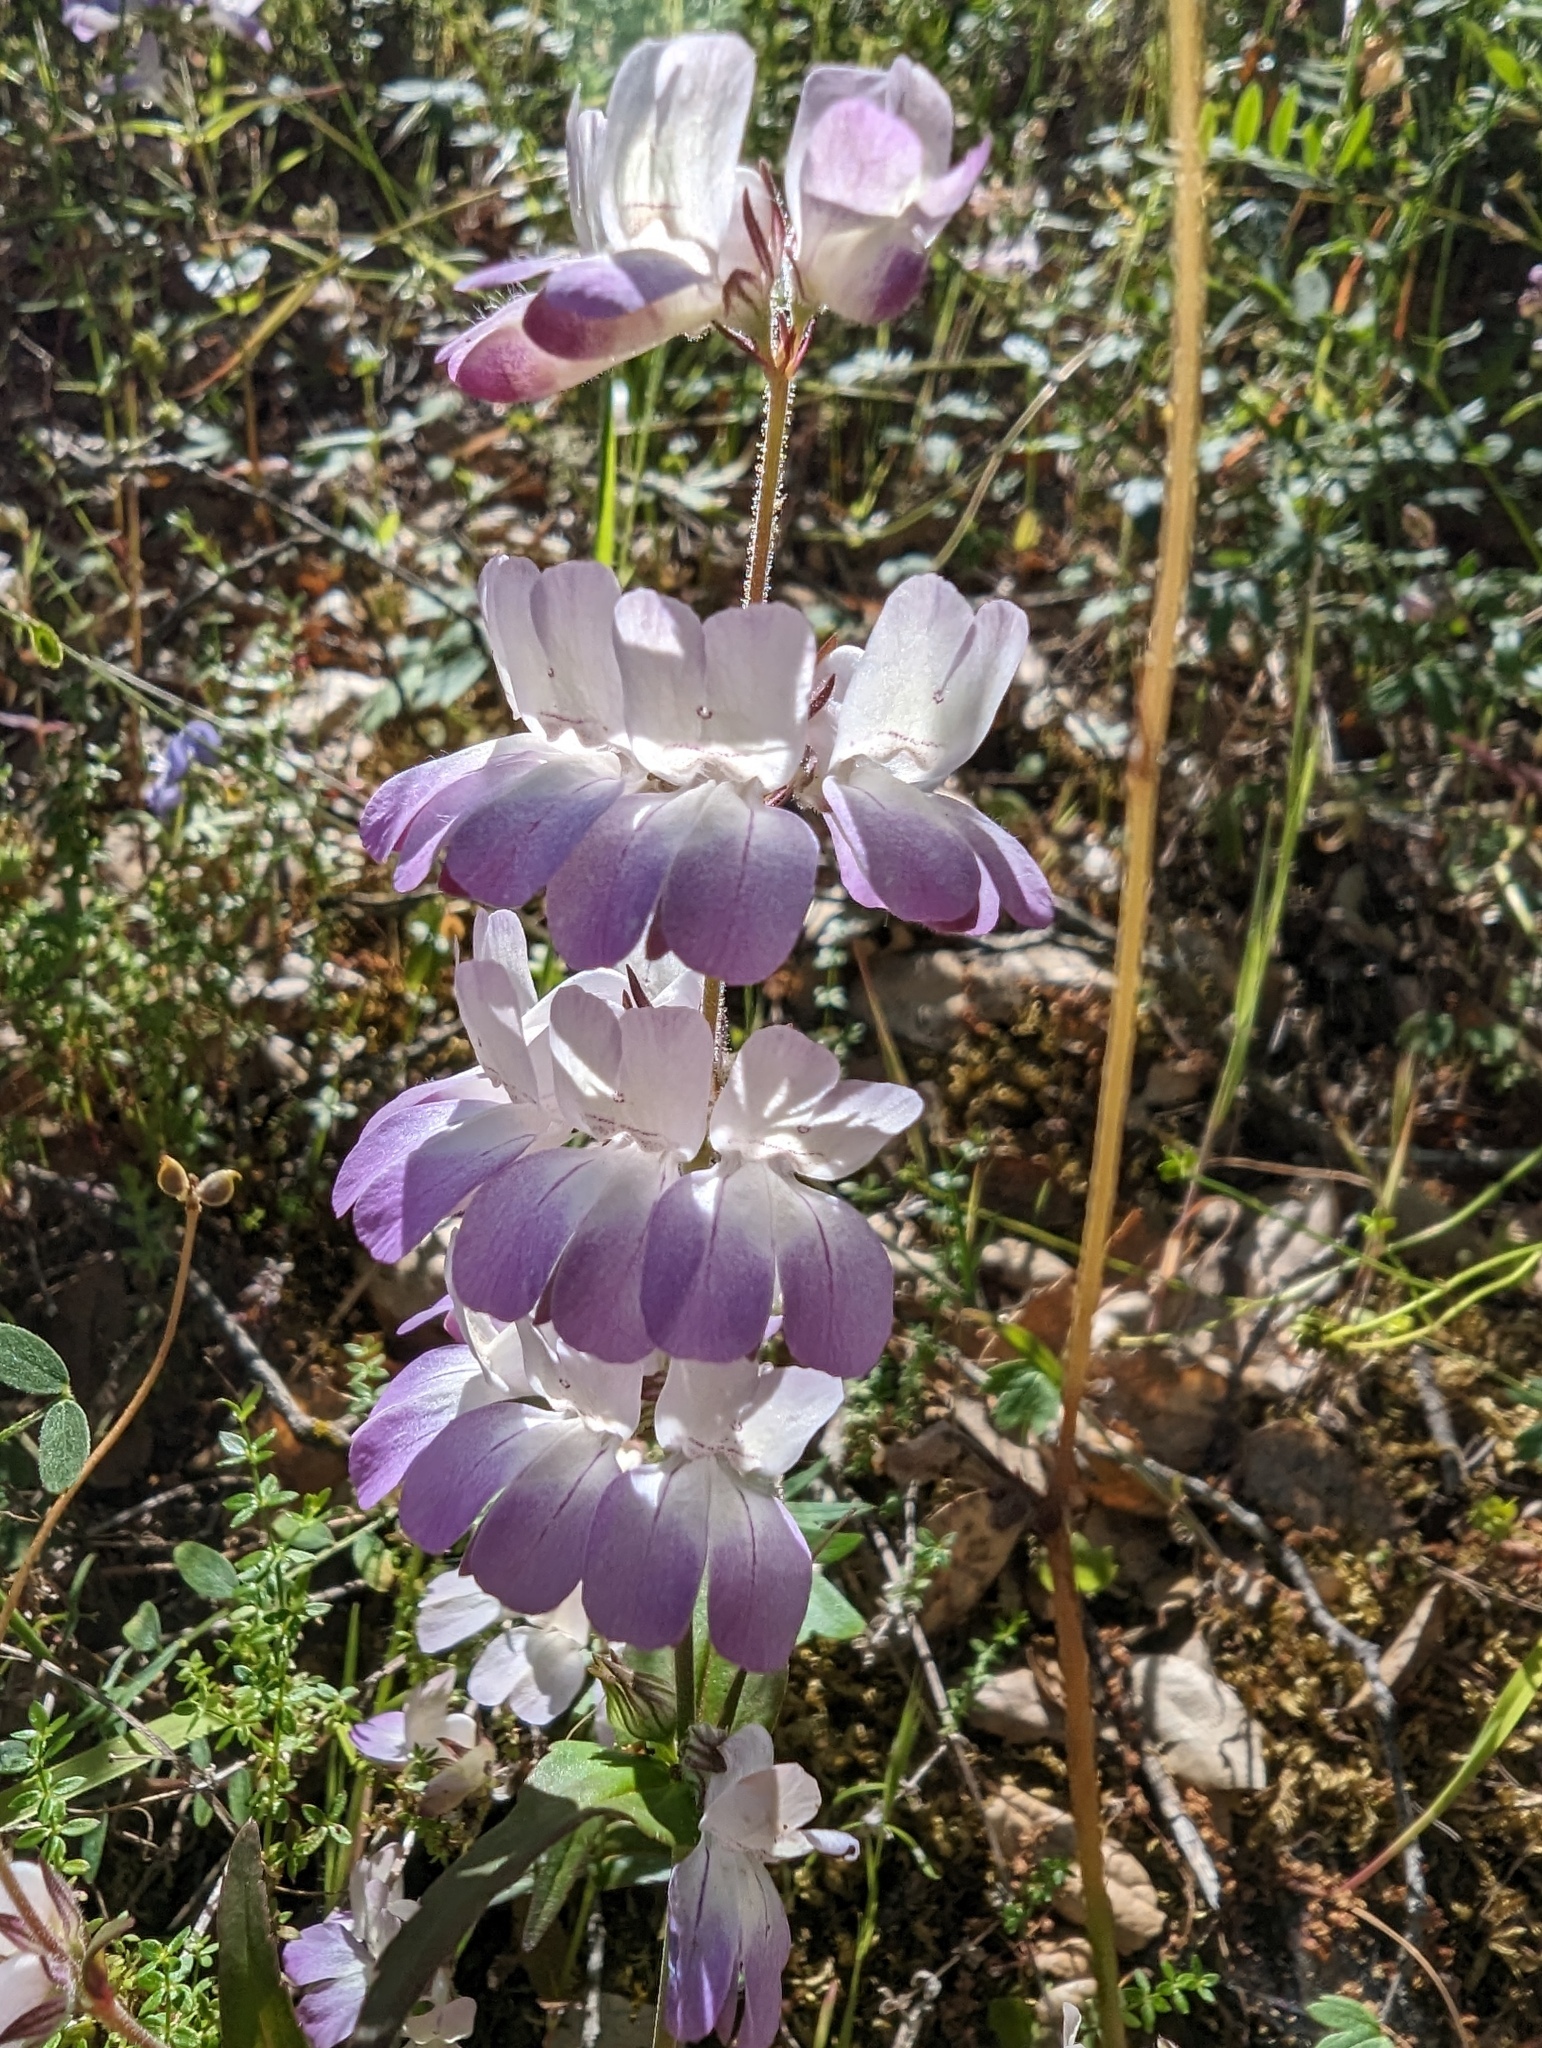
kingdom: Plantae
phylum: Tracheophyta
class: Magnoliopsida
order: Lamiales
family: Plantaginaceae
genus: Collinsia
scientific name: Collinsia heterophylla
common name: Chinese-houses
